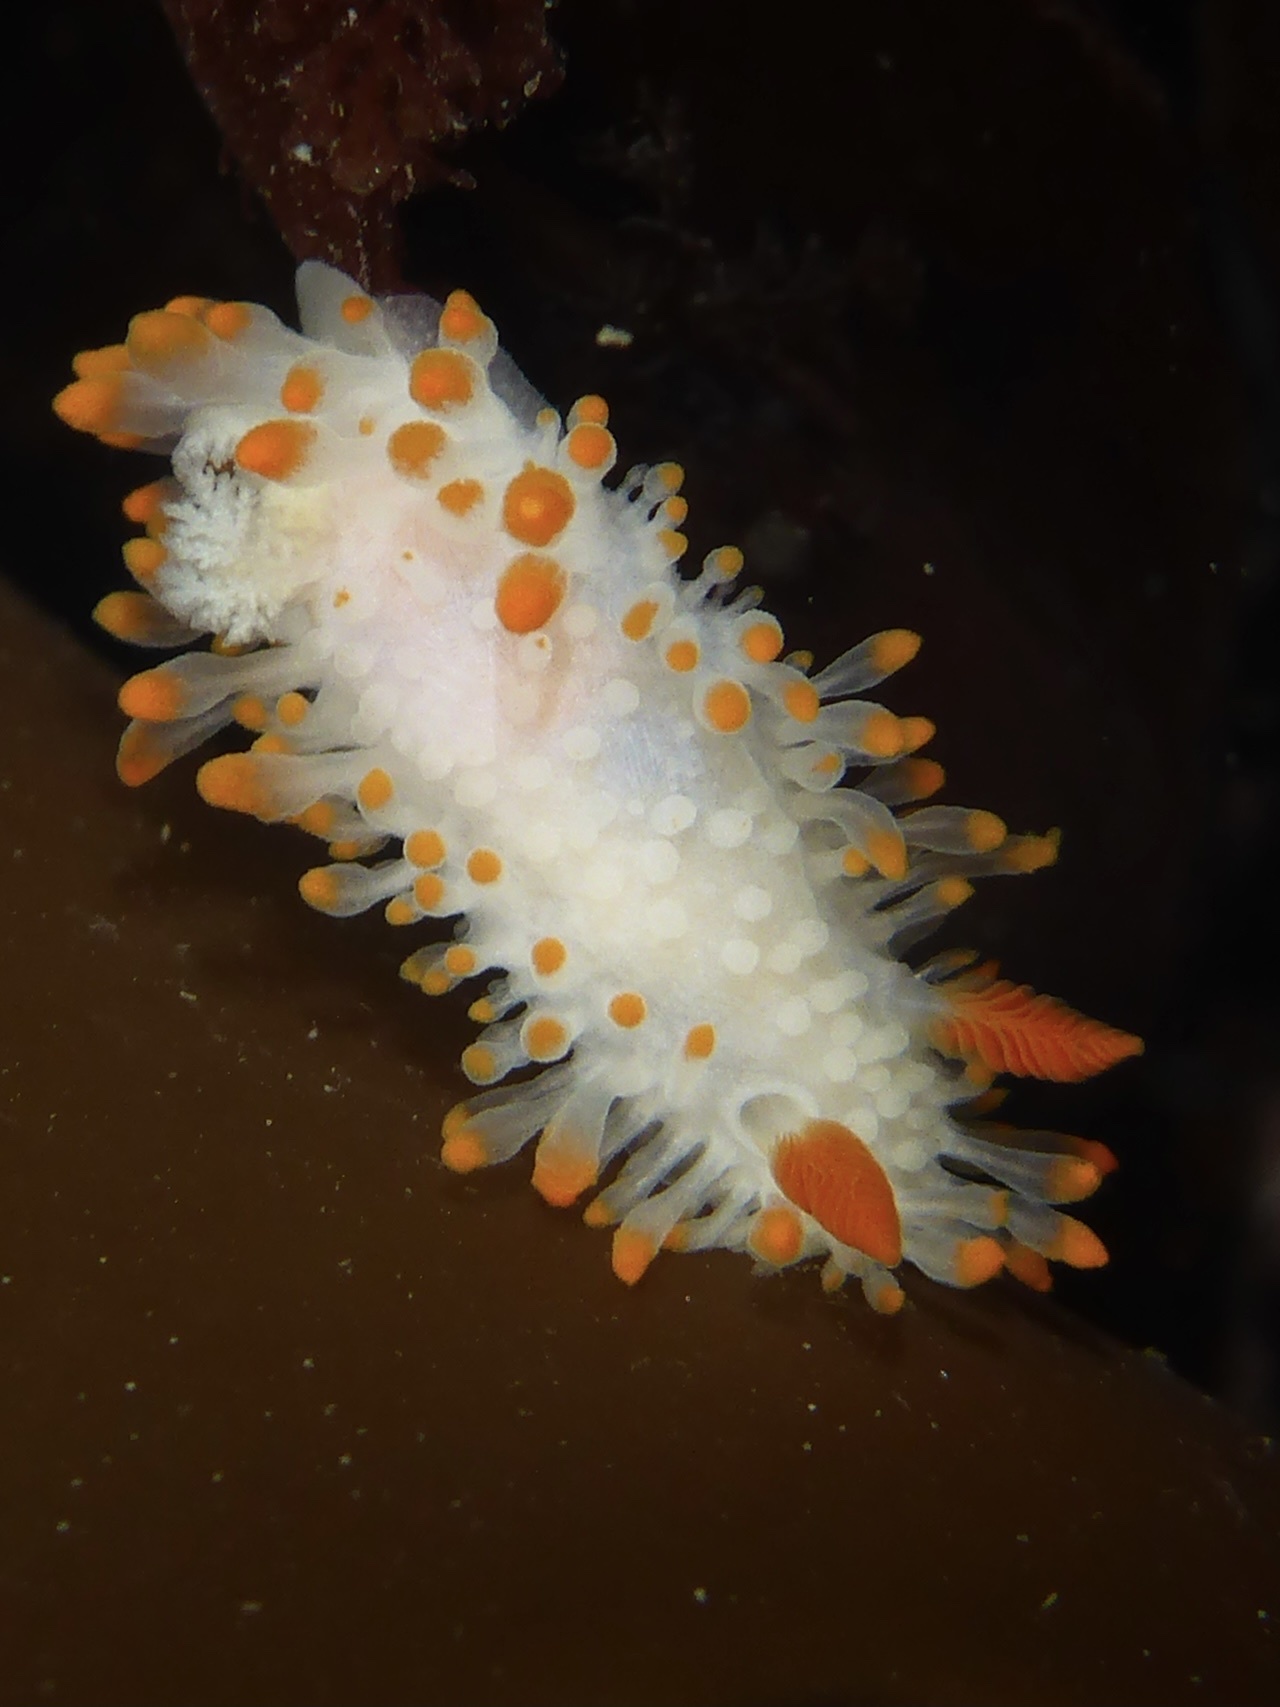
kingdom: Animalia
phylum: Mollusca
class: Gastropoda
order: Nudibranchia
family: Polyceridae
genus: Limacia
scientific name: Limacia cockerelli
